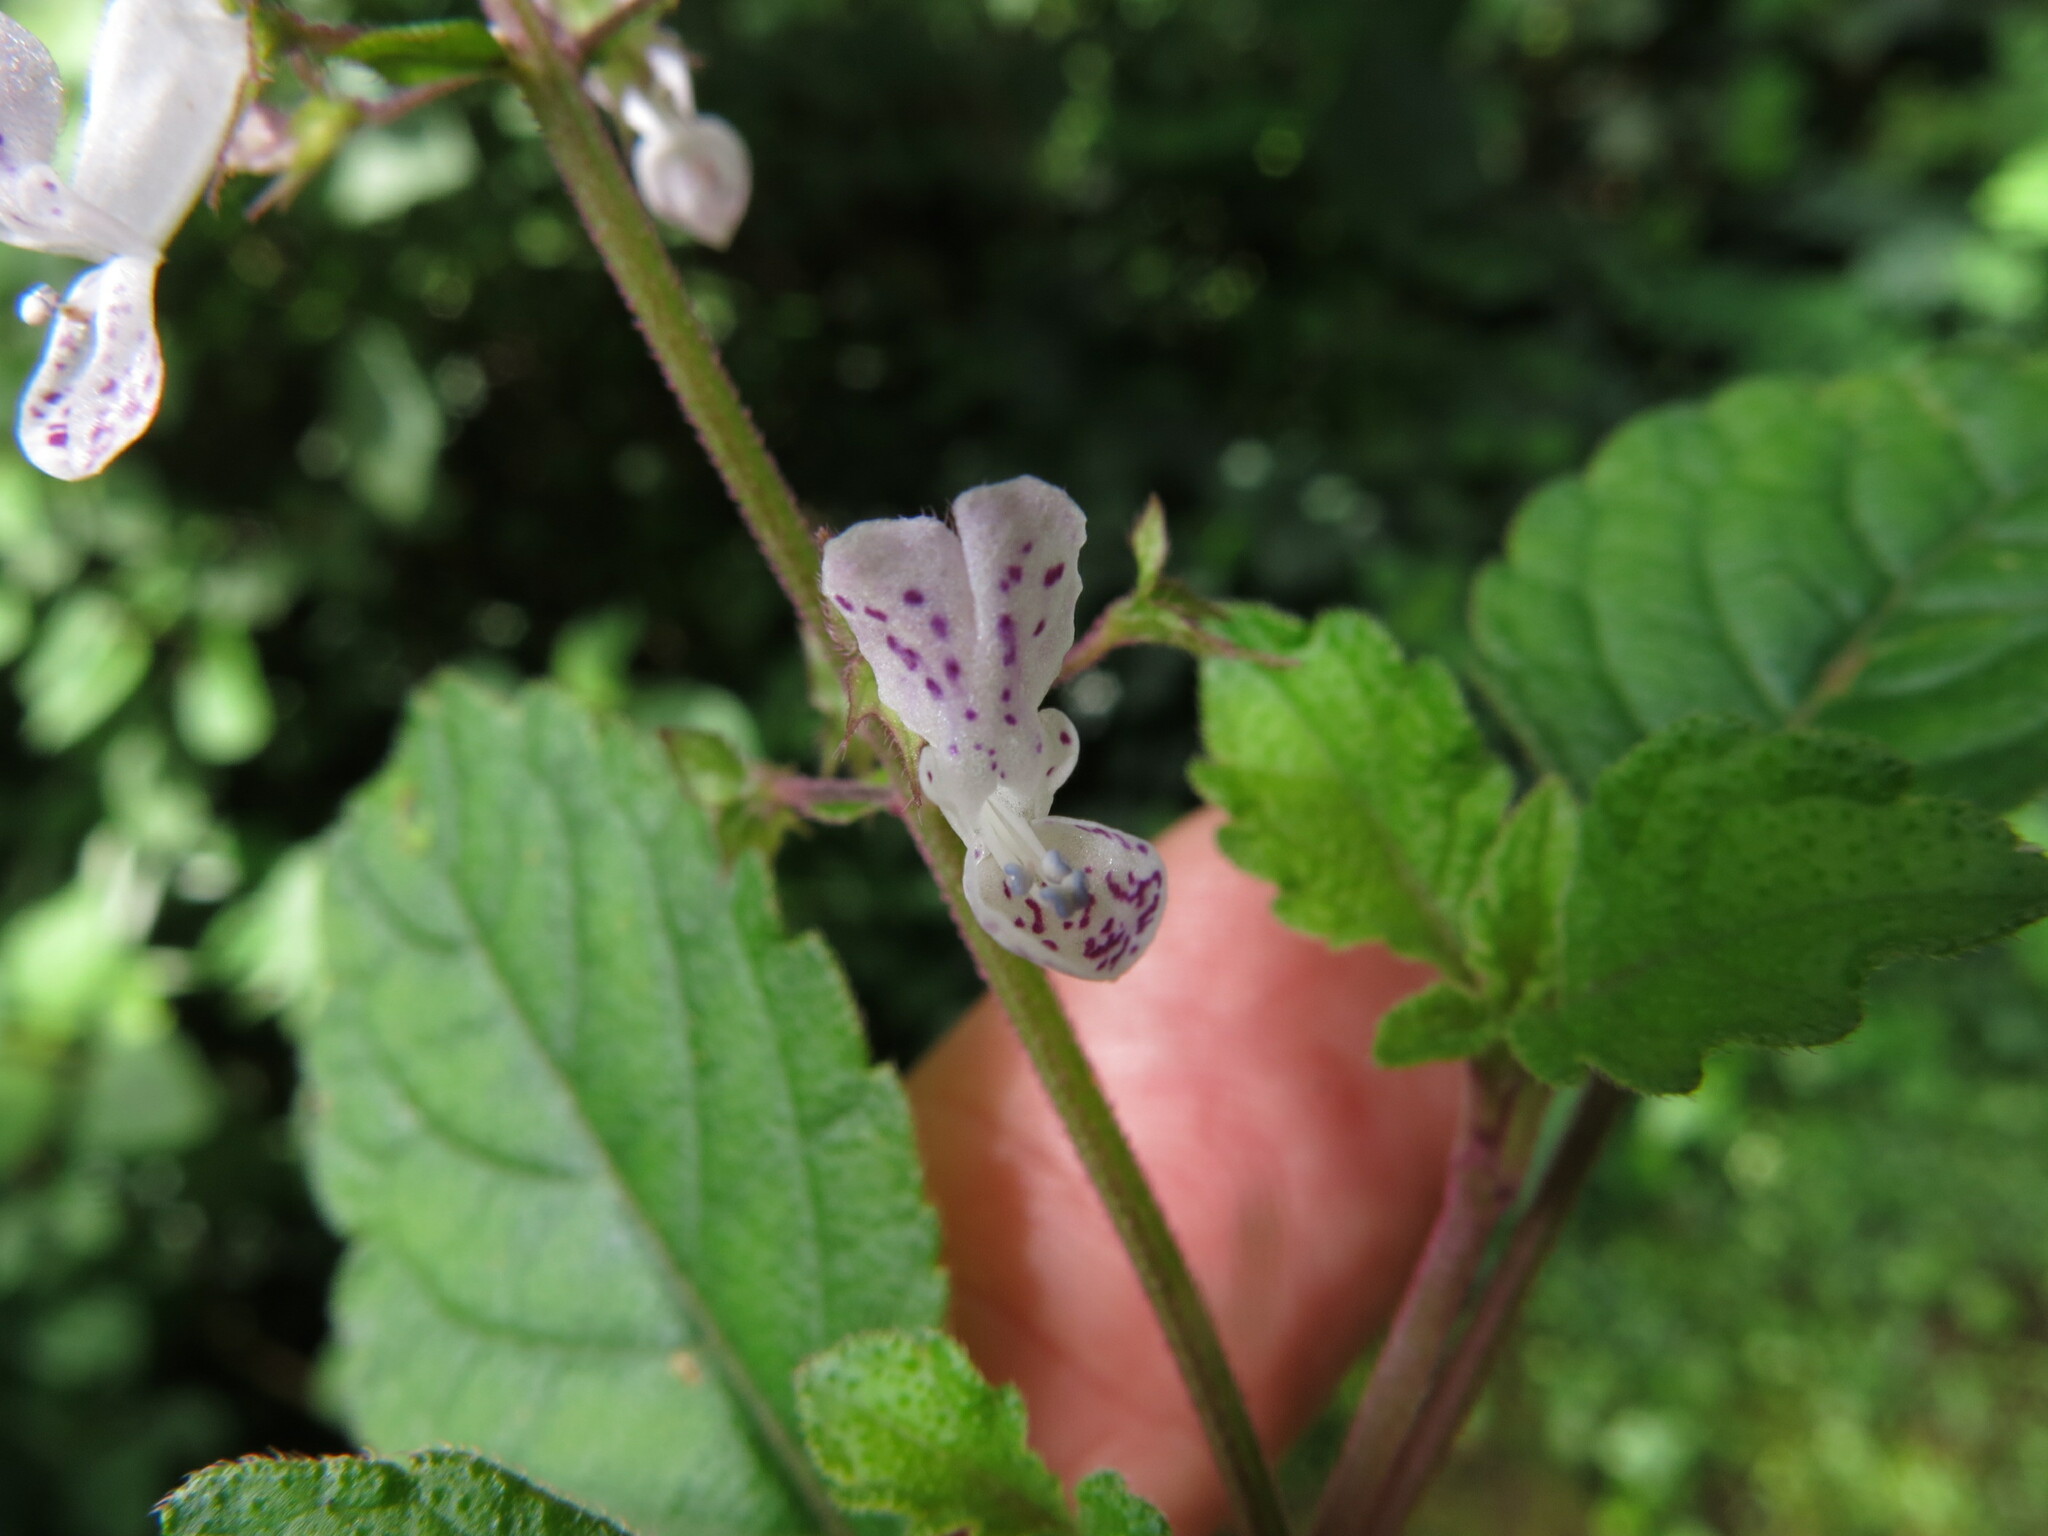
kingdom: Plantae
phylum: Tracheophyta
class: Magnoliopsida
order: Lamiales
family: Lamiaceae
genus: Plectranthus
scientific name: Plectranthus ciliatus
